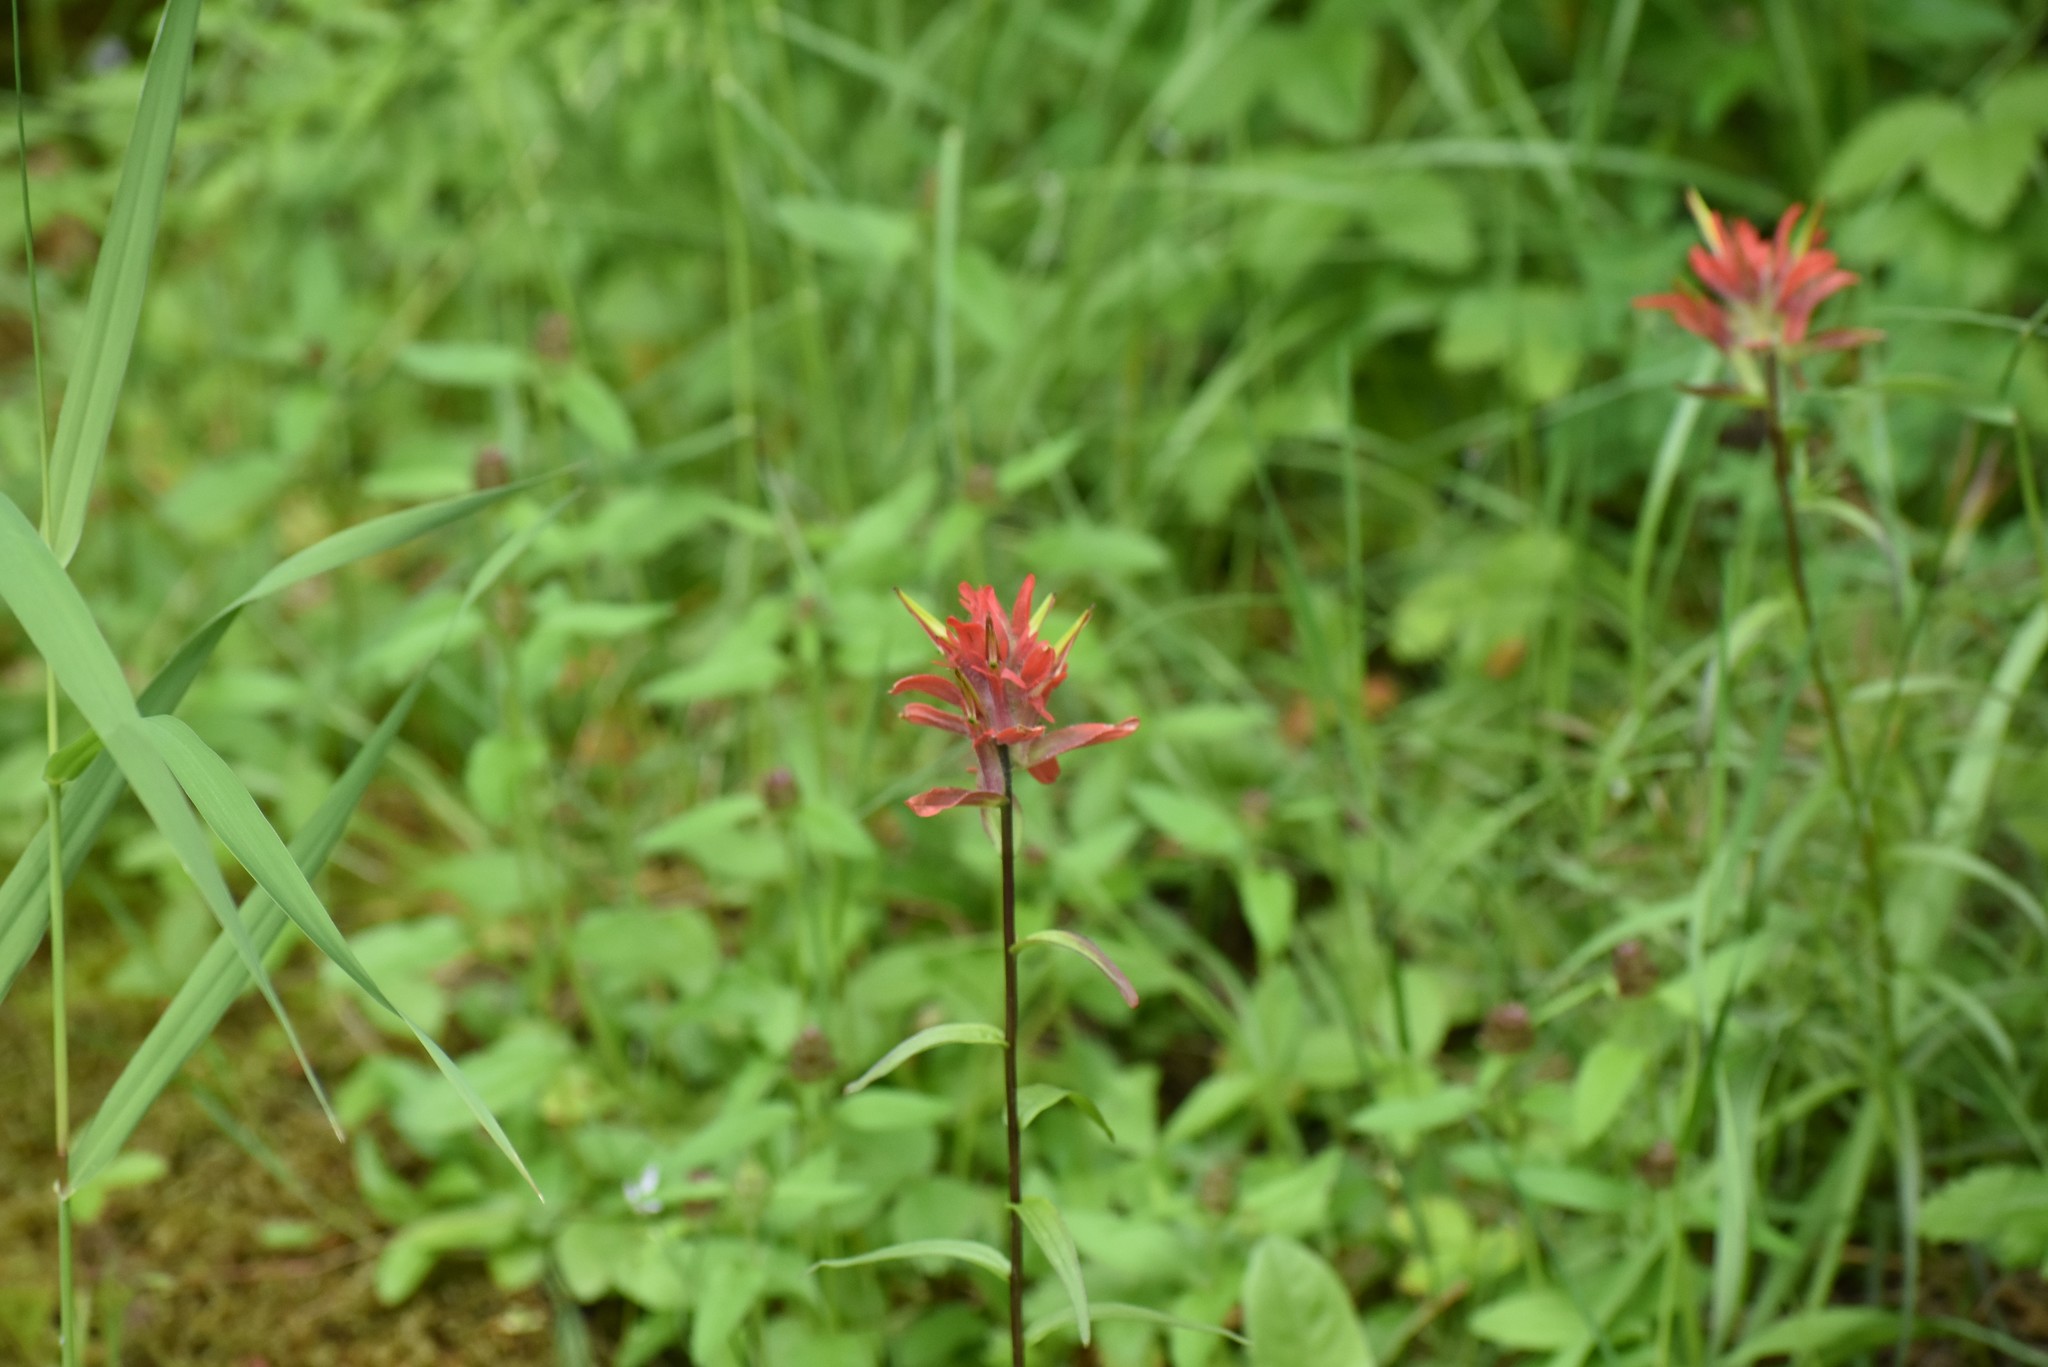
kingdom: Plantae
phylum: Tracheophyta
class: Magnoliopsida
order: Lamiales
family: Orobanchaceae
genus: Castilleja
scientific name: Castilleja miniata
